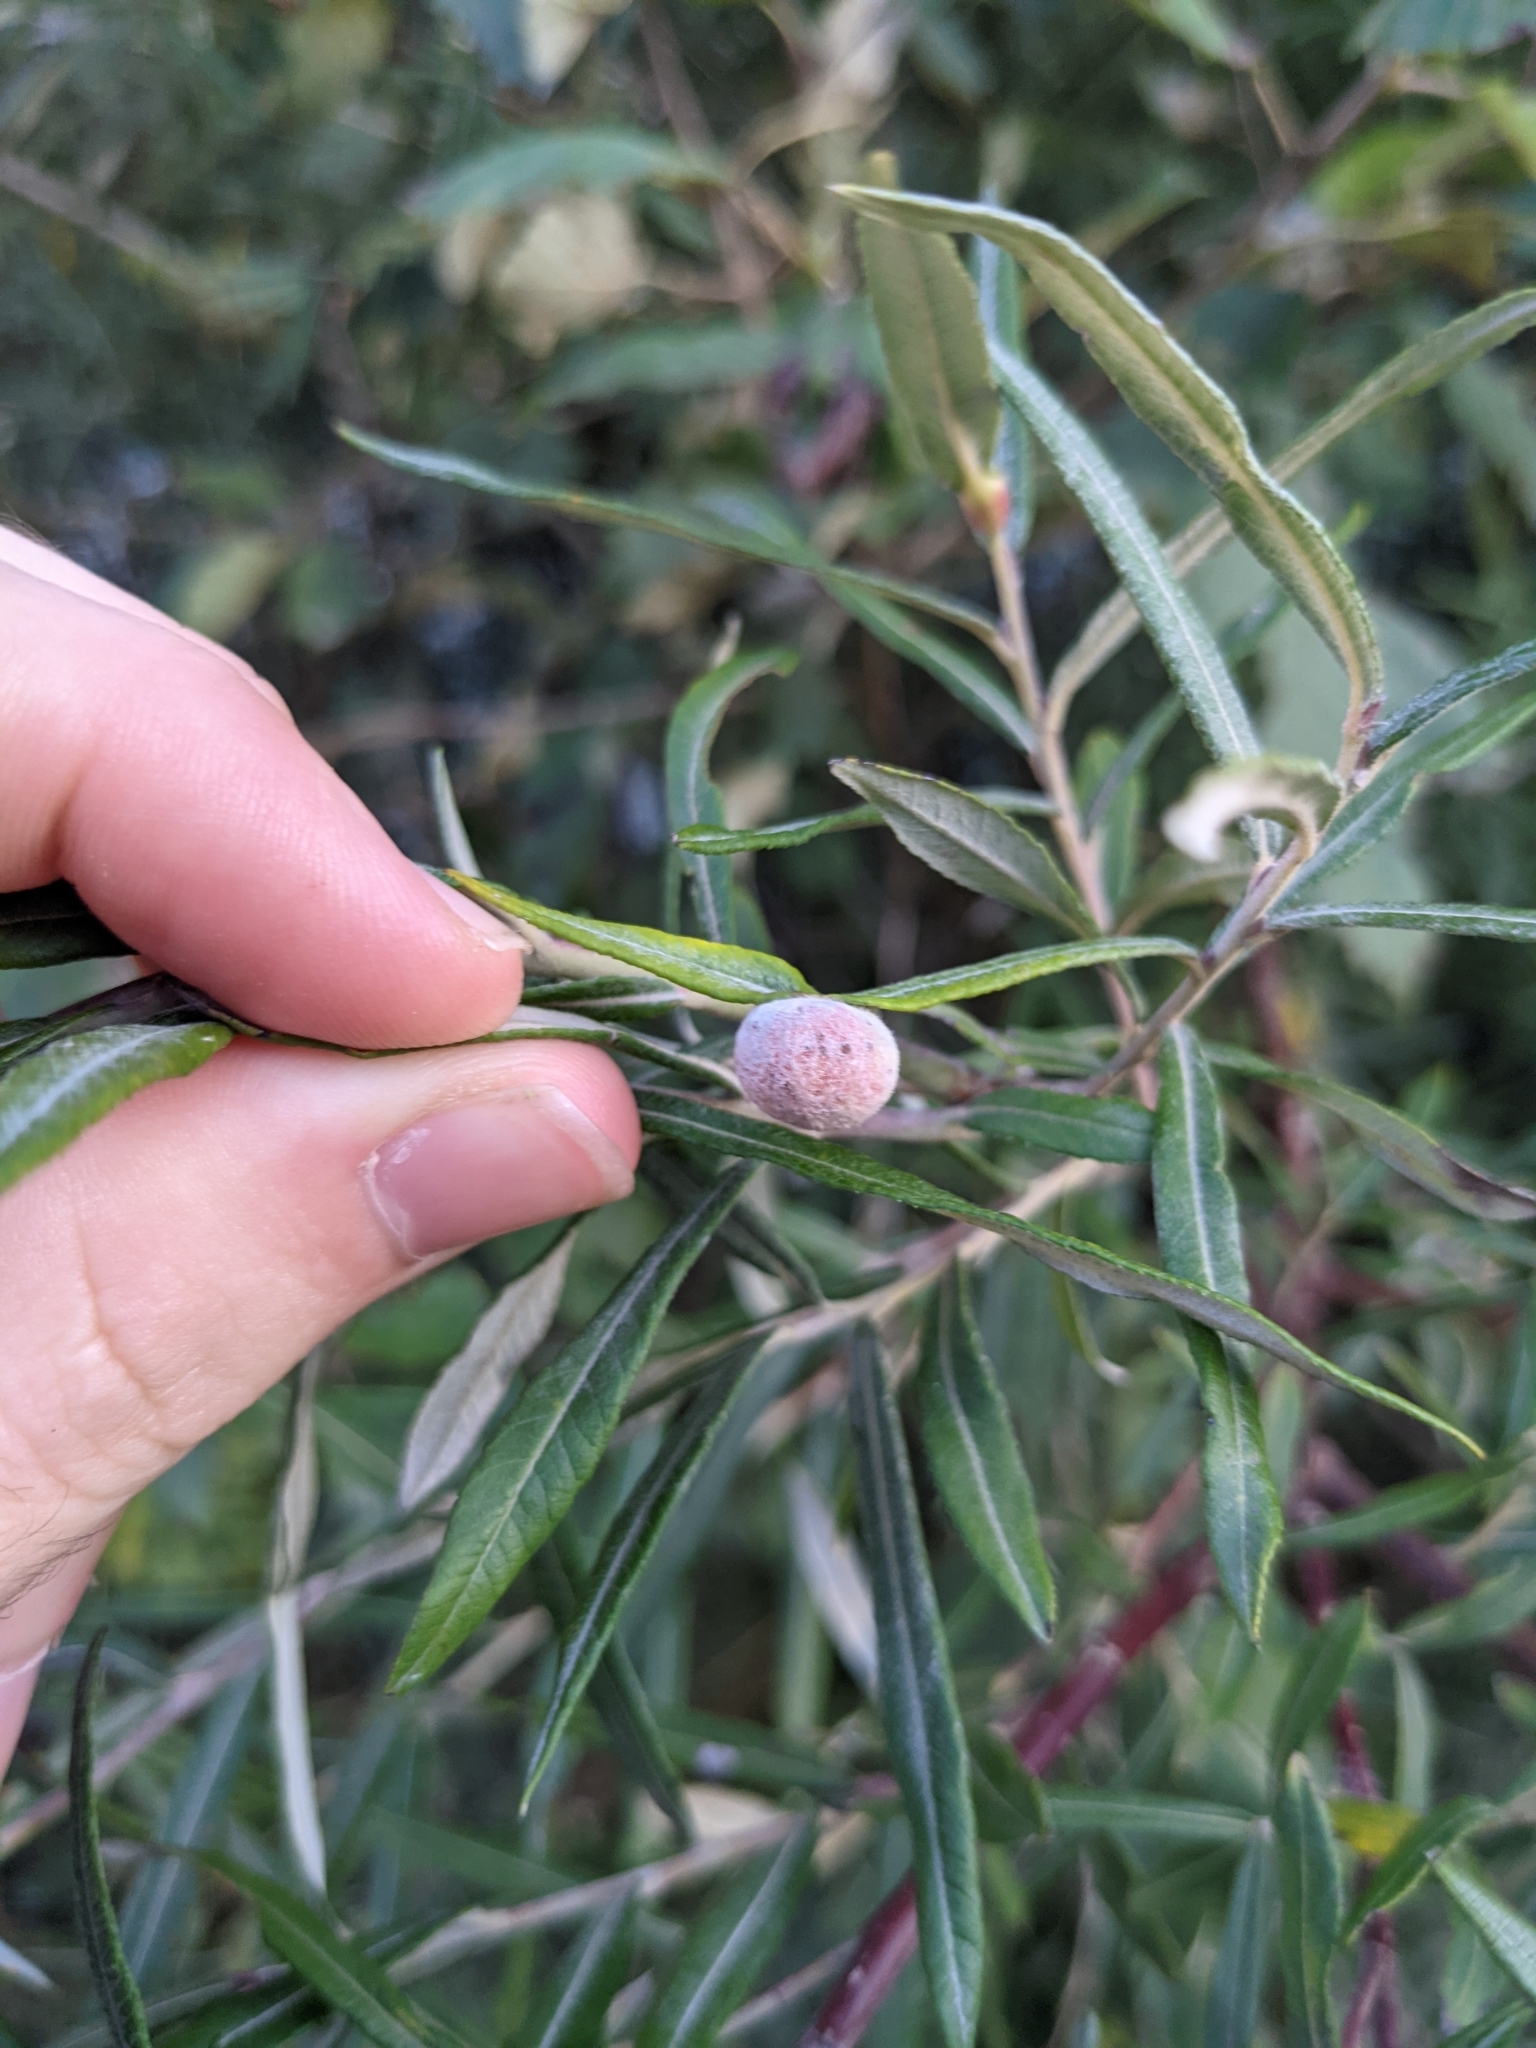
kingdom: Animalia
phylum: Arthropoda
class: Insecta
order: Hymenoptera
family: Tenthredinidae
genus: Euura
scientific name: Euura kriechbaumeri
